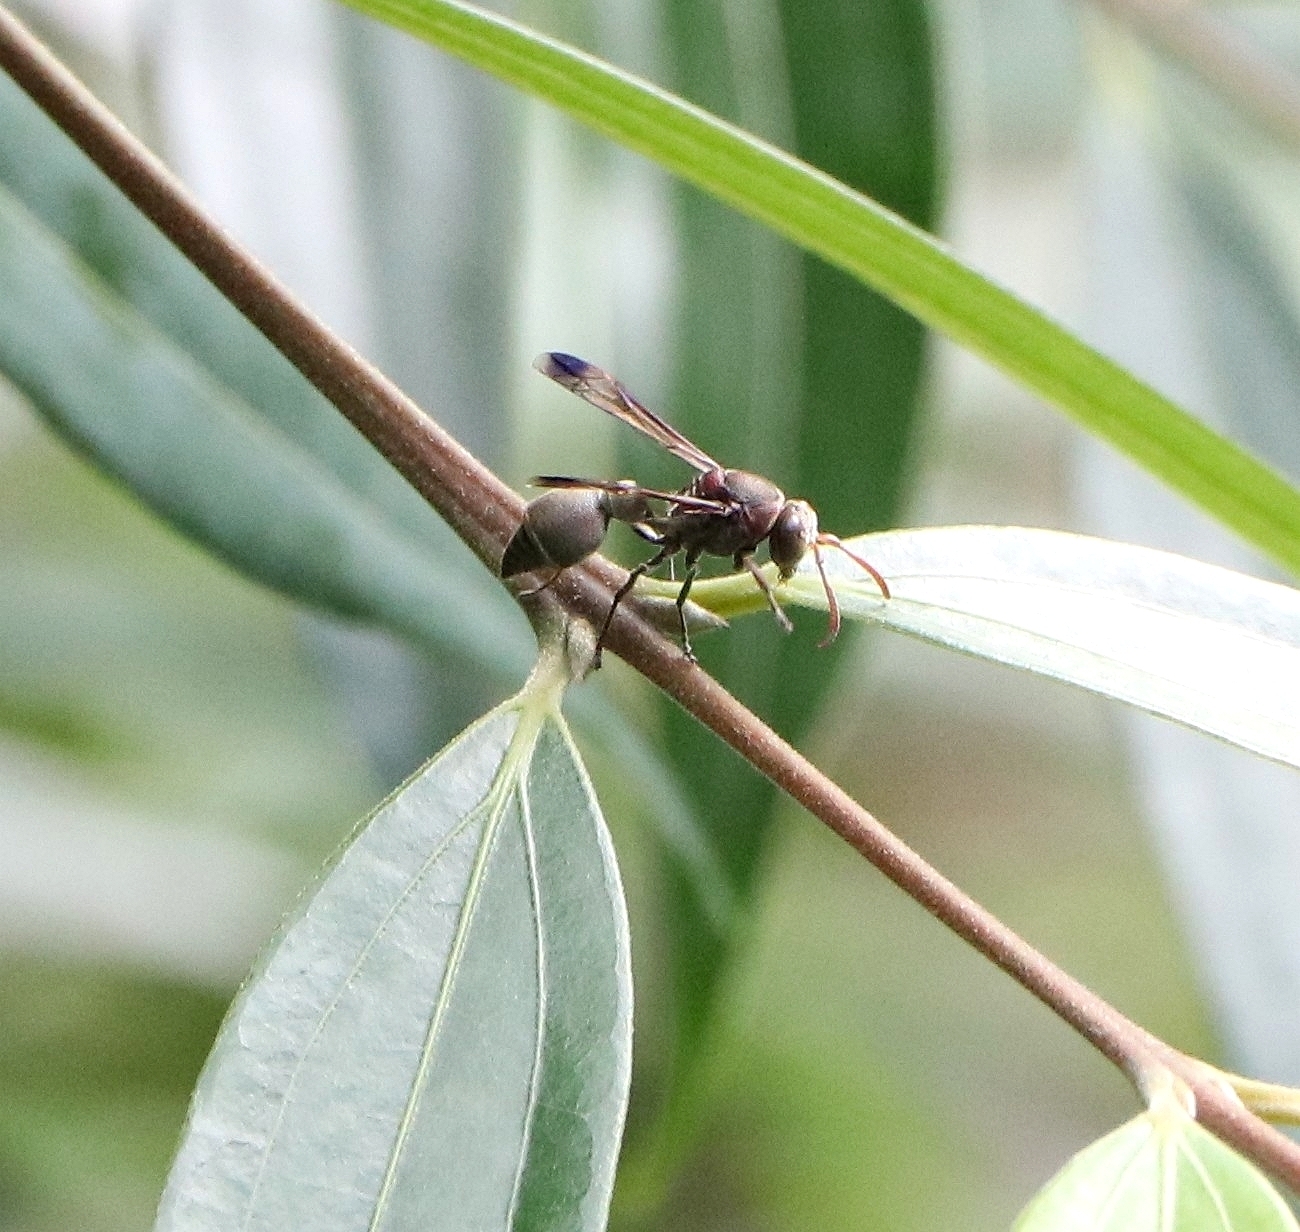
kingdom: Animalia
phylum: Arthropoda
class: Insecta
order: Hymenoptera
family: Vespidae
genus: Ropalidia
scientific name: Ropalidia magnanima
